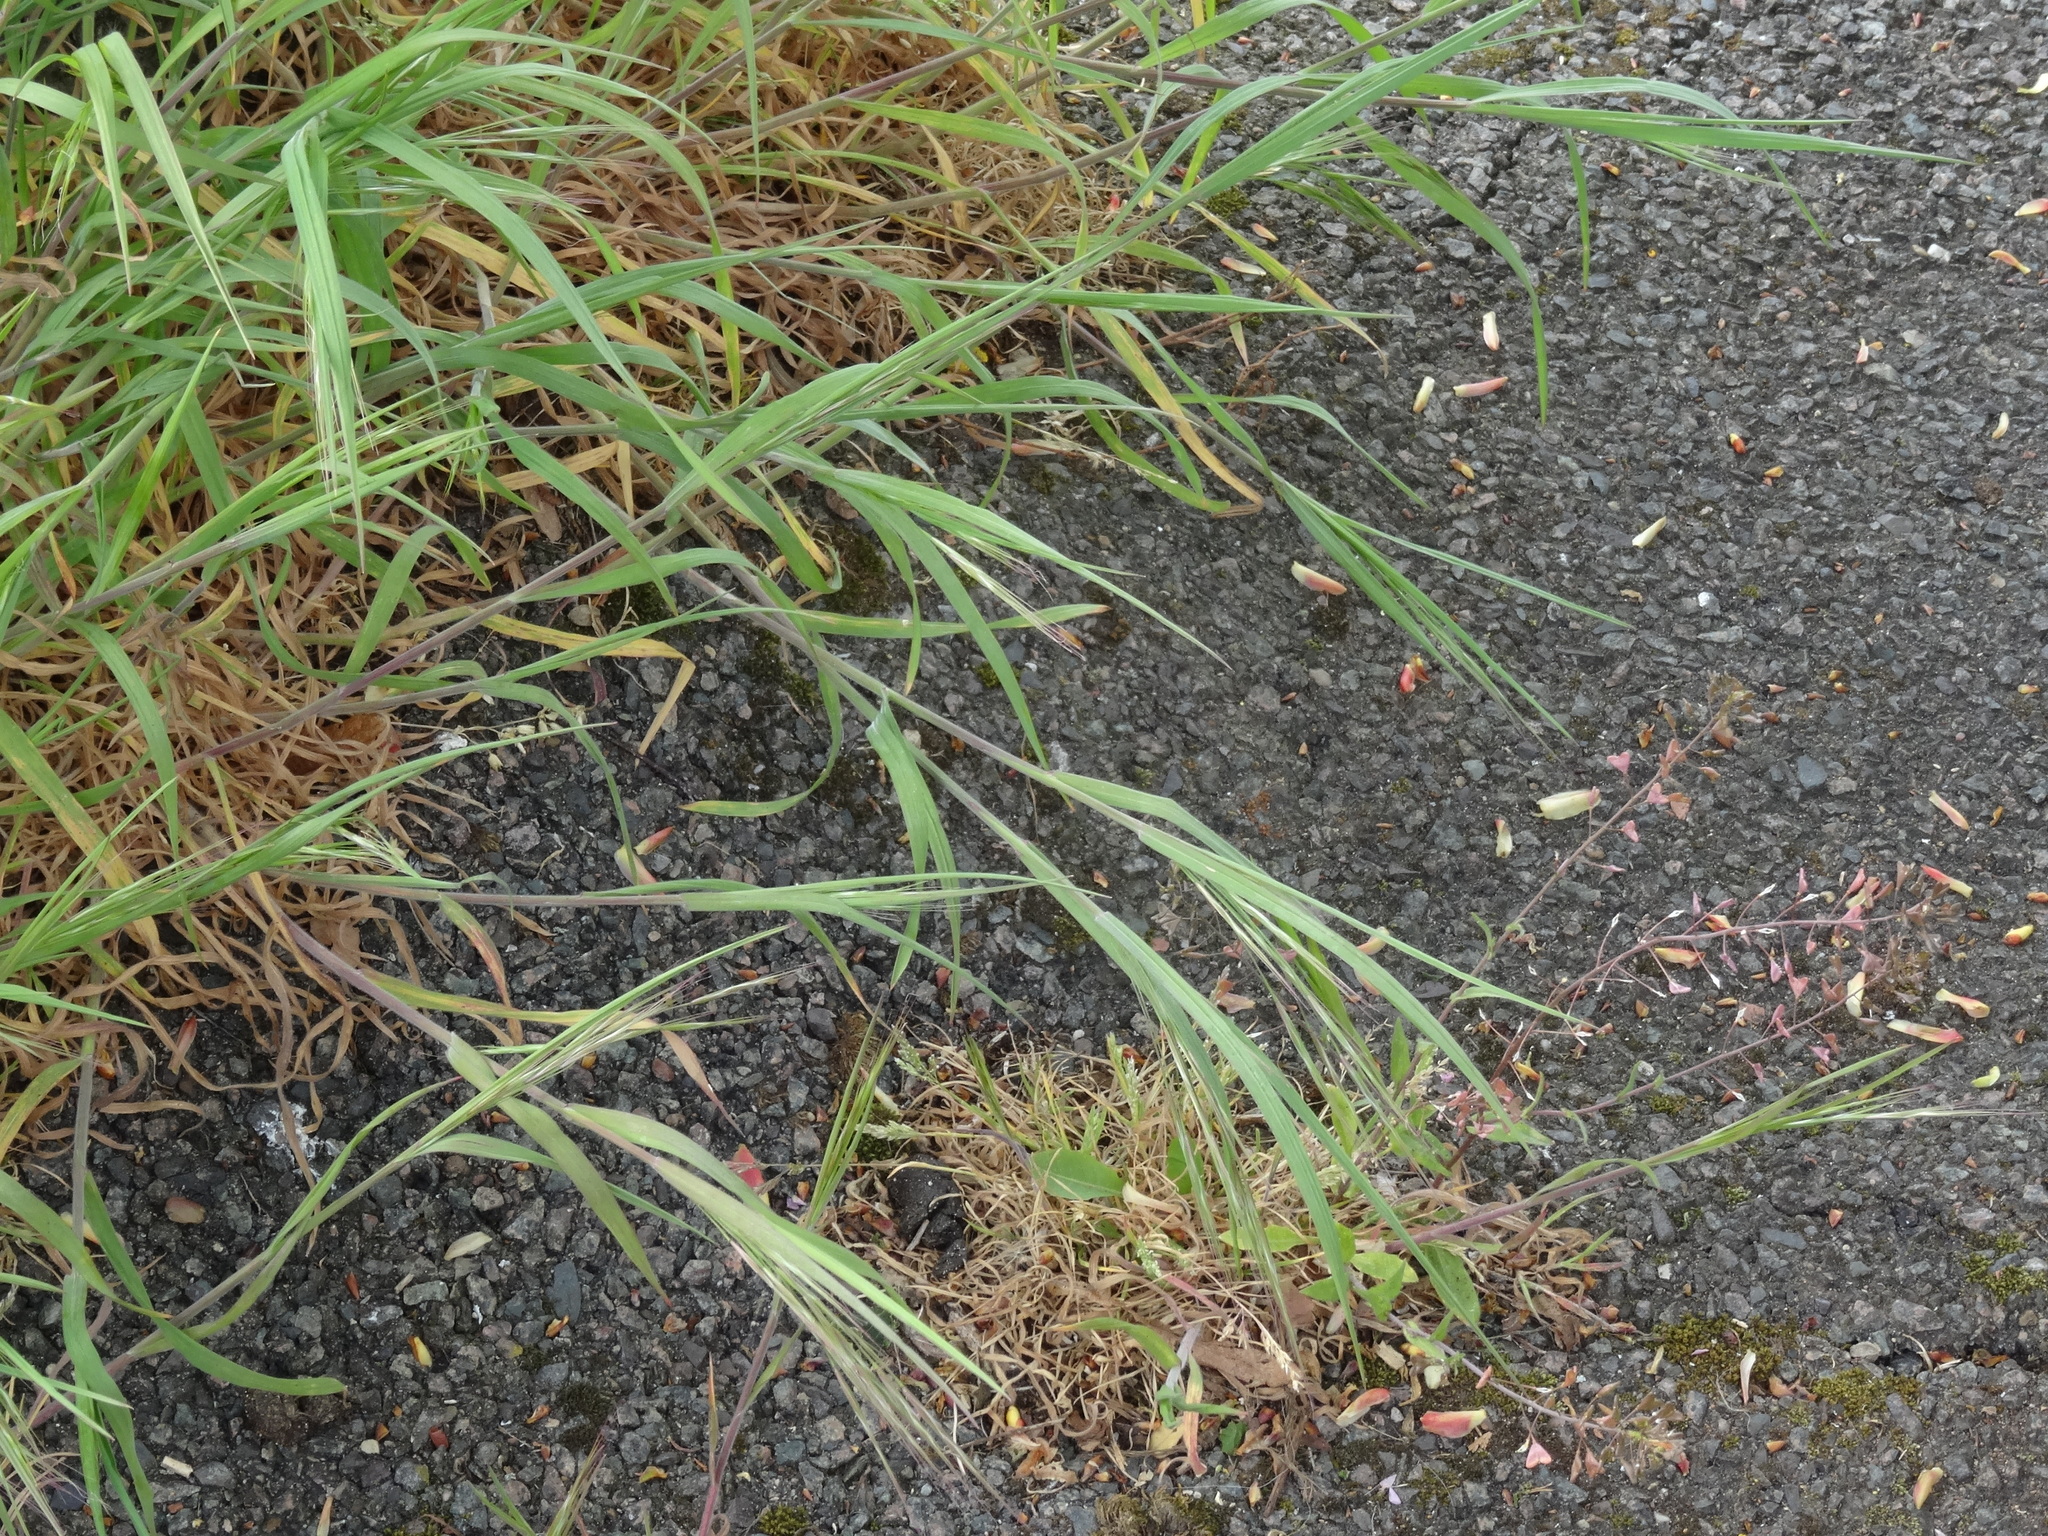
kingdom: Plantae
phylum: Tracheophyta
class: Liliopsida
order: Poales
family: Poaceae
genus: Bromus
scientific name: Bromus sterilis
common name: Poverty brome
